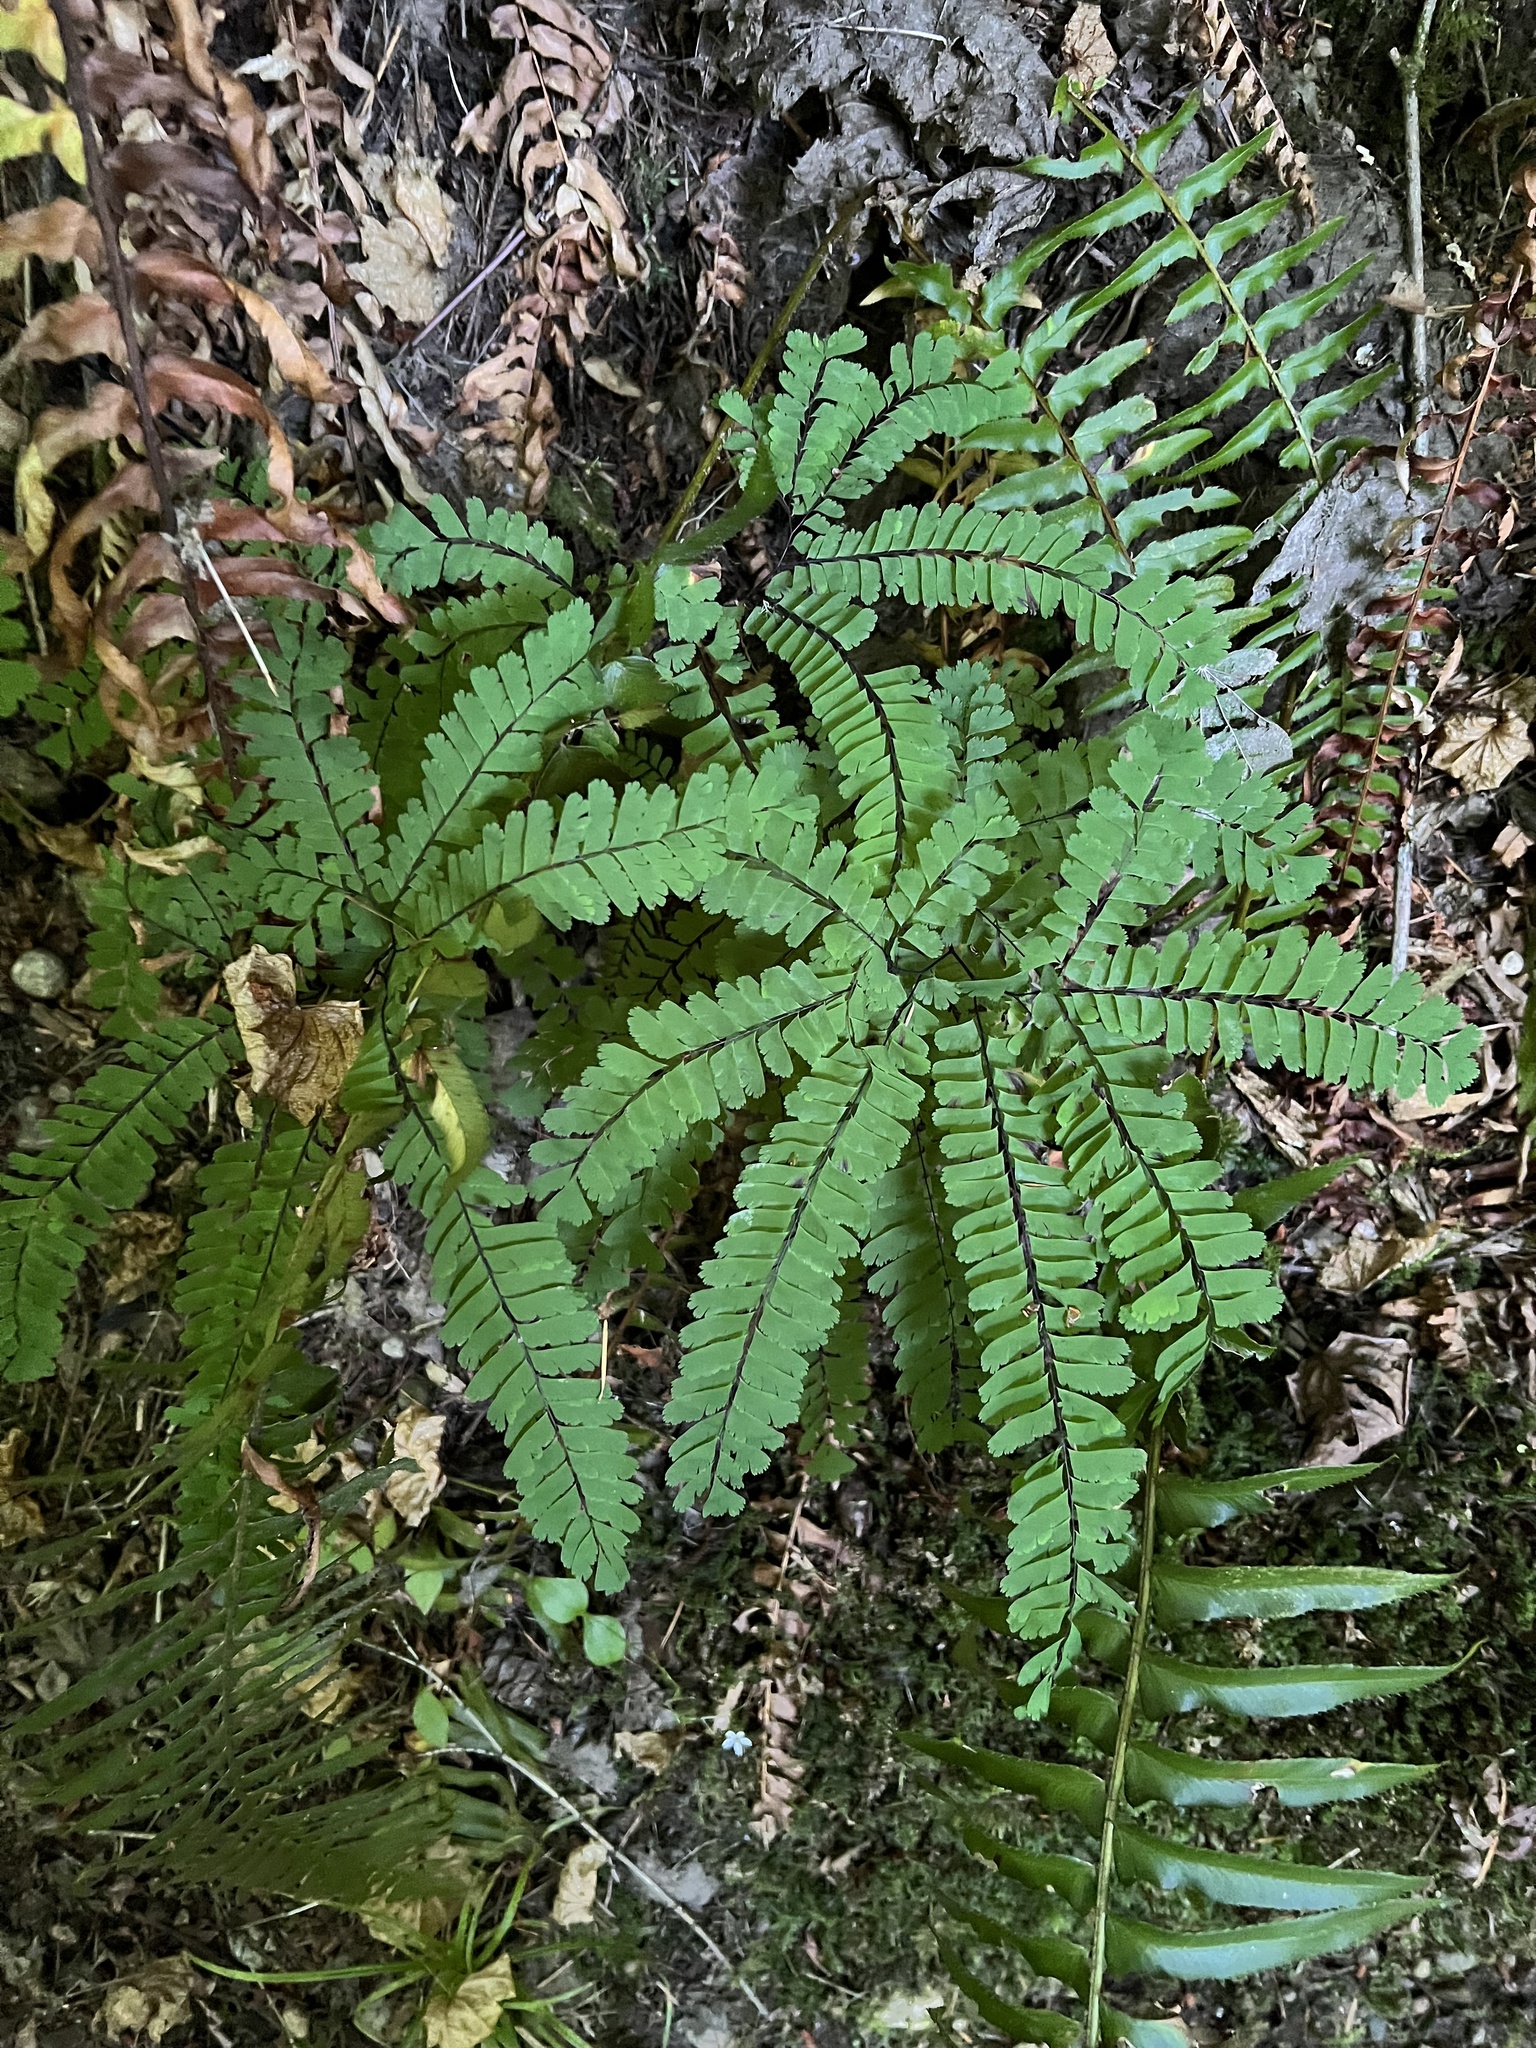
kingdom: Plantae
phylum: Tracheophyta
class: Polypodiopsida
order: Polypodiales
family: Pteridaceae
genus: Adiantum
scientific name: Adiantum aleuticum
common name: Aleutian maidenhair fern
